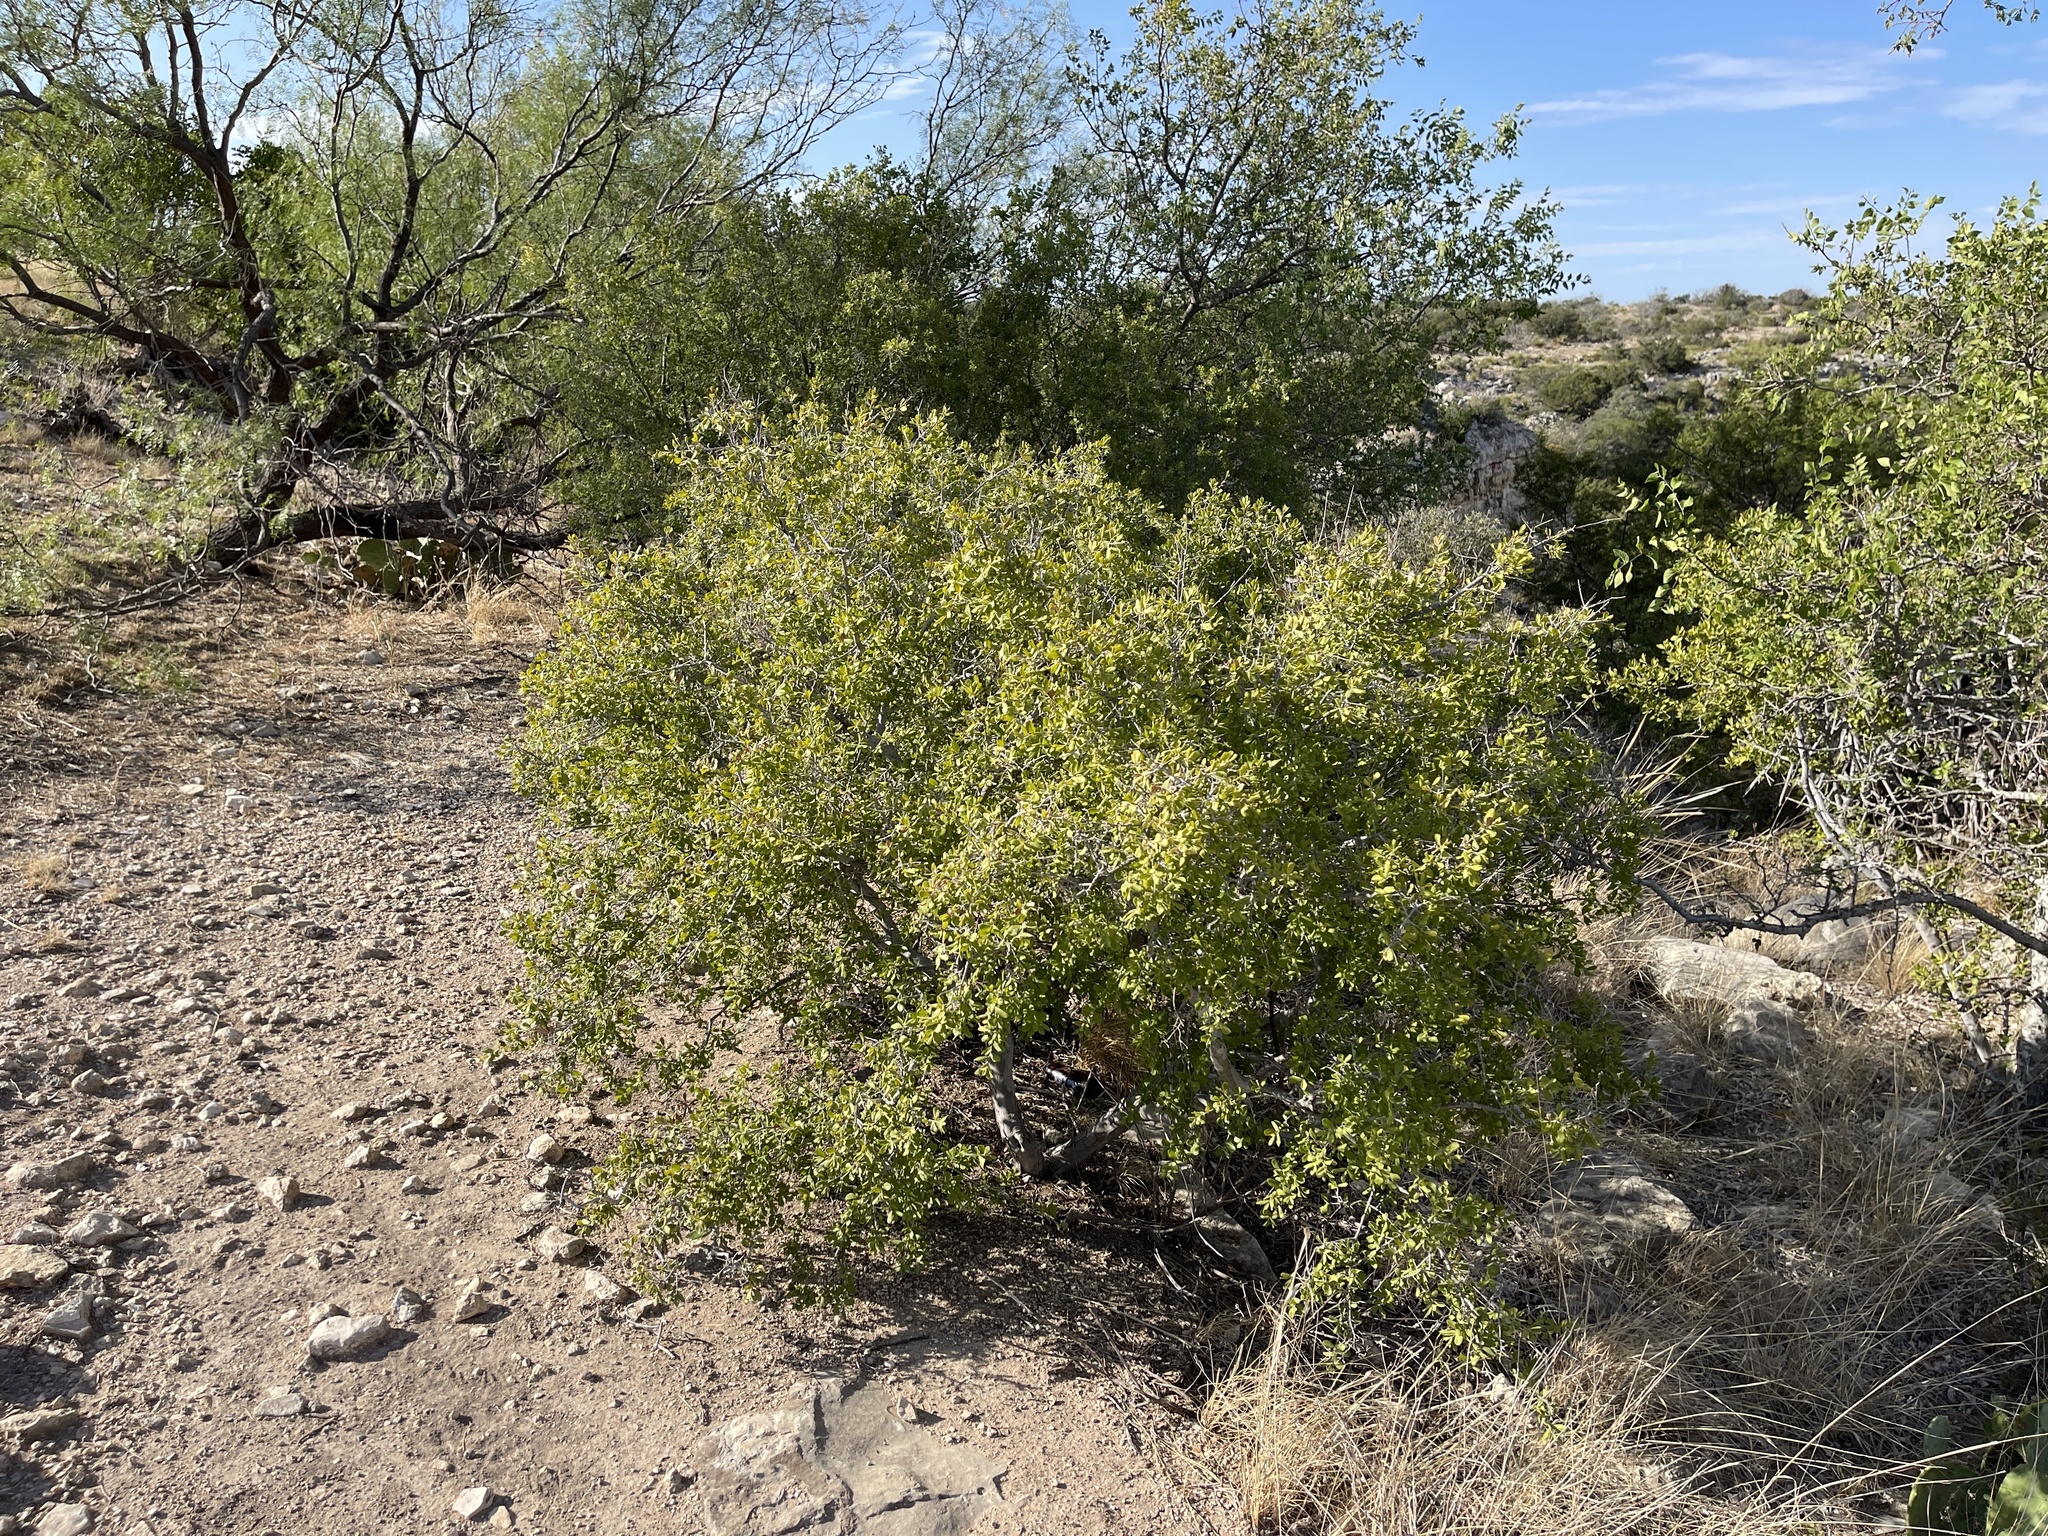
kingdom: Plantae
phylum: Tracheophyta
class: Magnoliopsida
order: Ericales
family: Ebenaceae
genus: Diospyros
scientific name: Diospyros texana
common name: Texas persimmon
